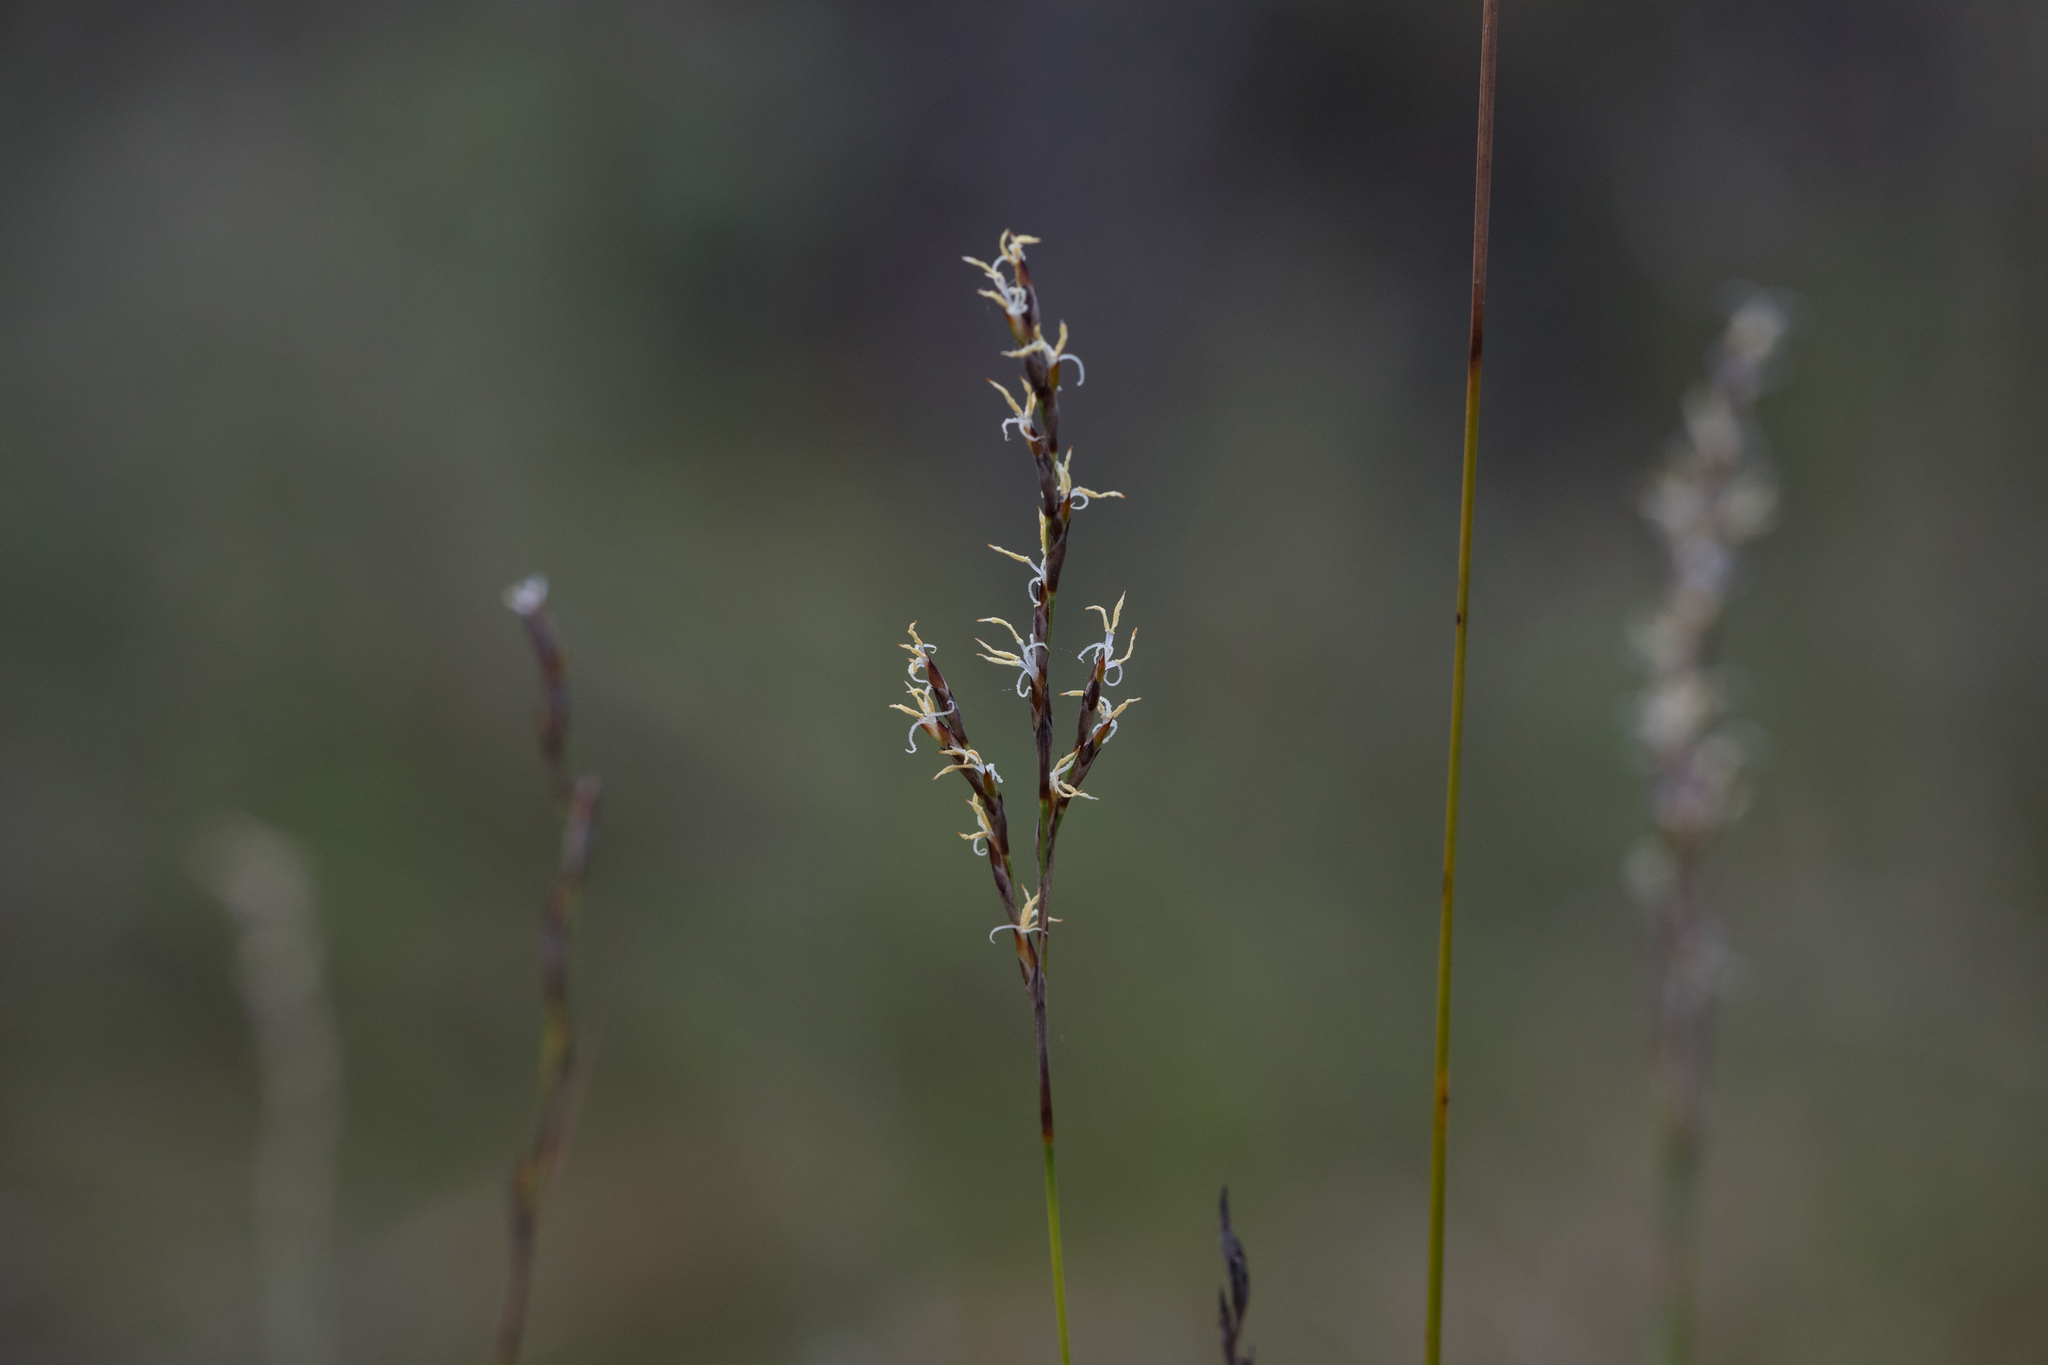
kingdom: Plantae
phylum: Tracheophyta
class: Liliopsida
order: Poales
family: Cyperaceae
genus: Lepidosperma
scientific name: Lepidosperma semiteres
